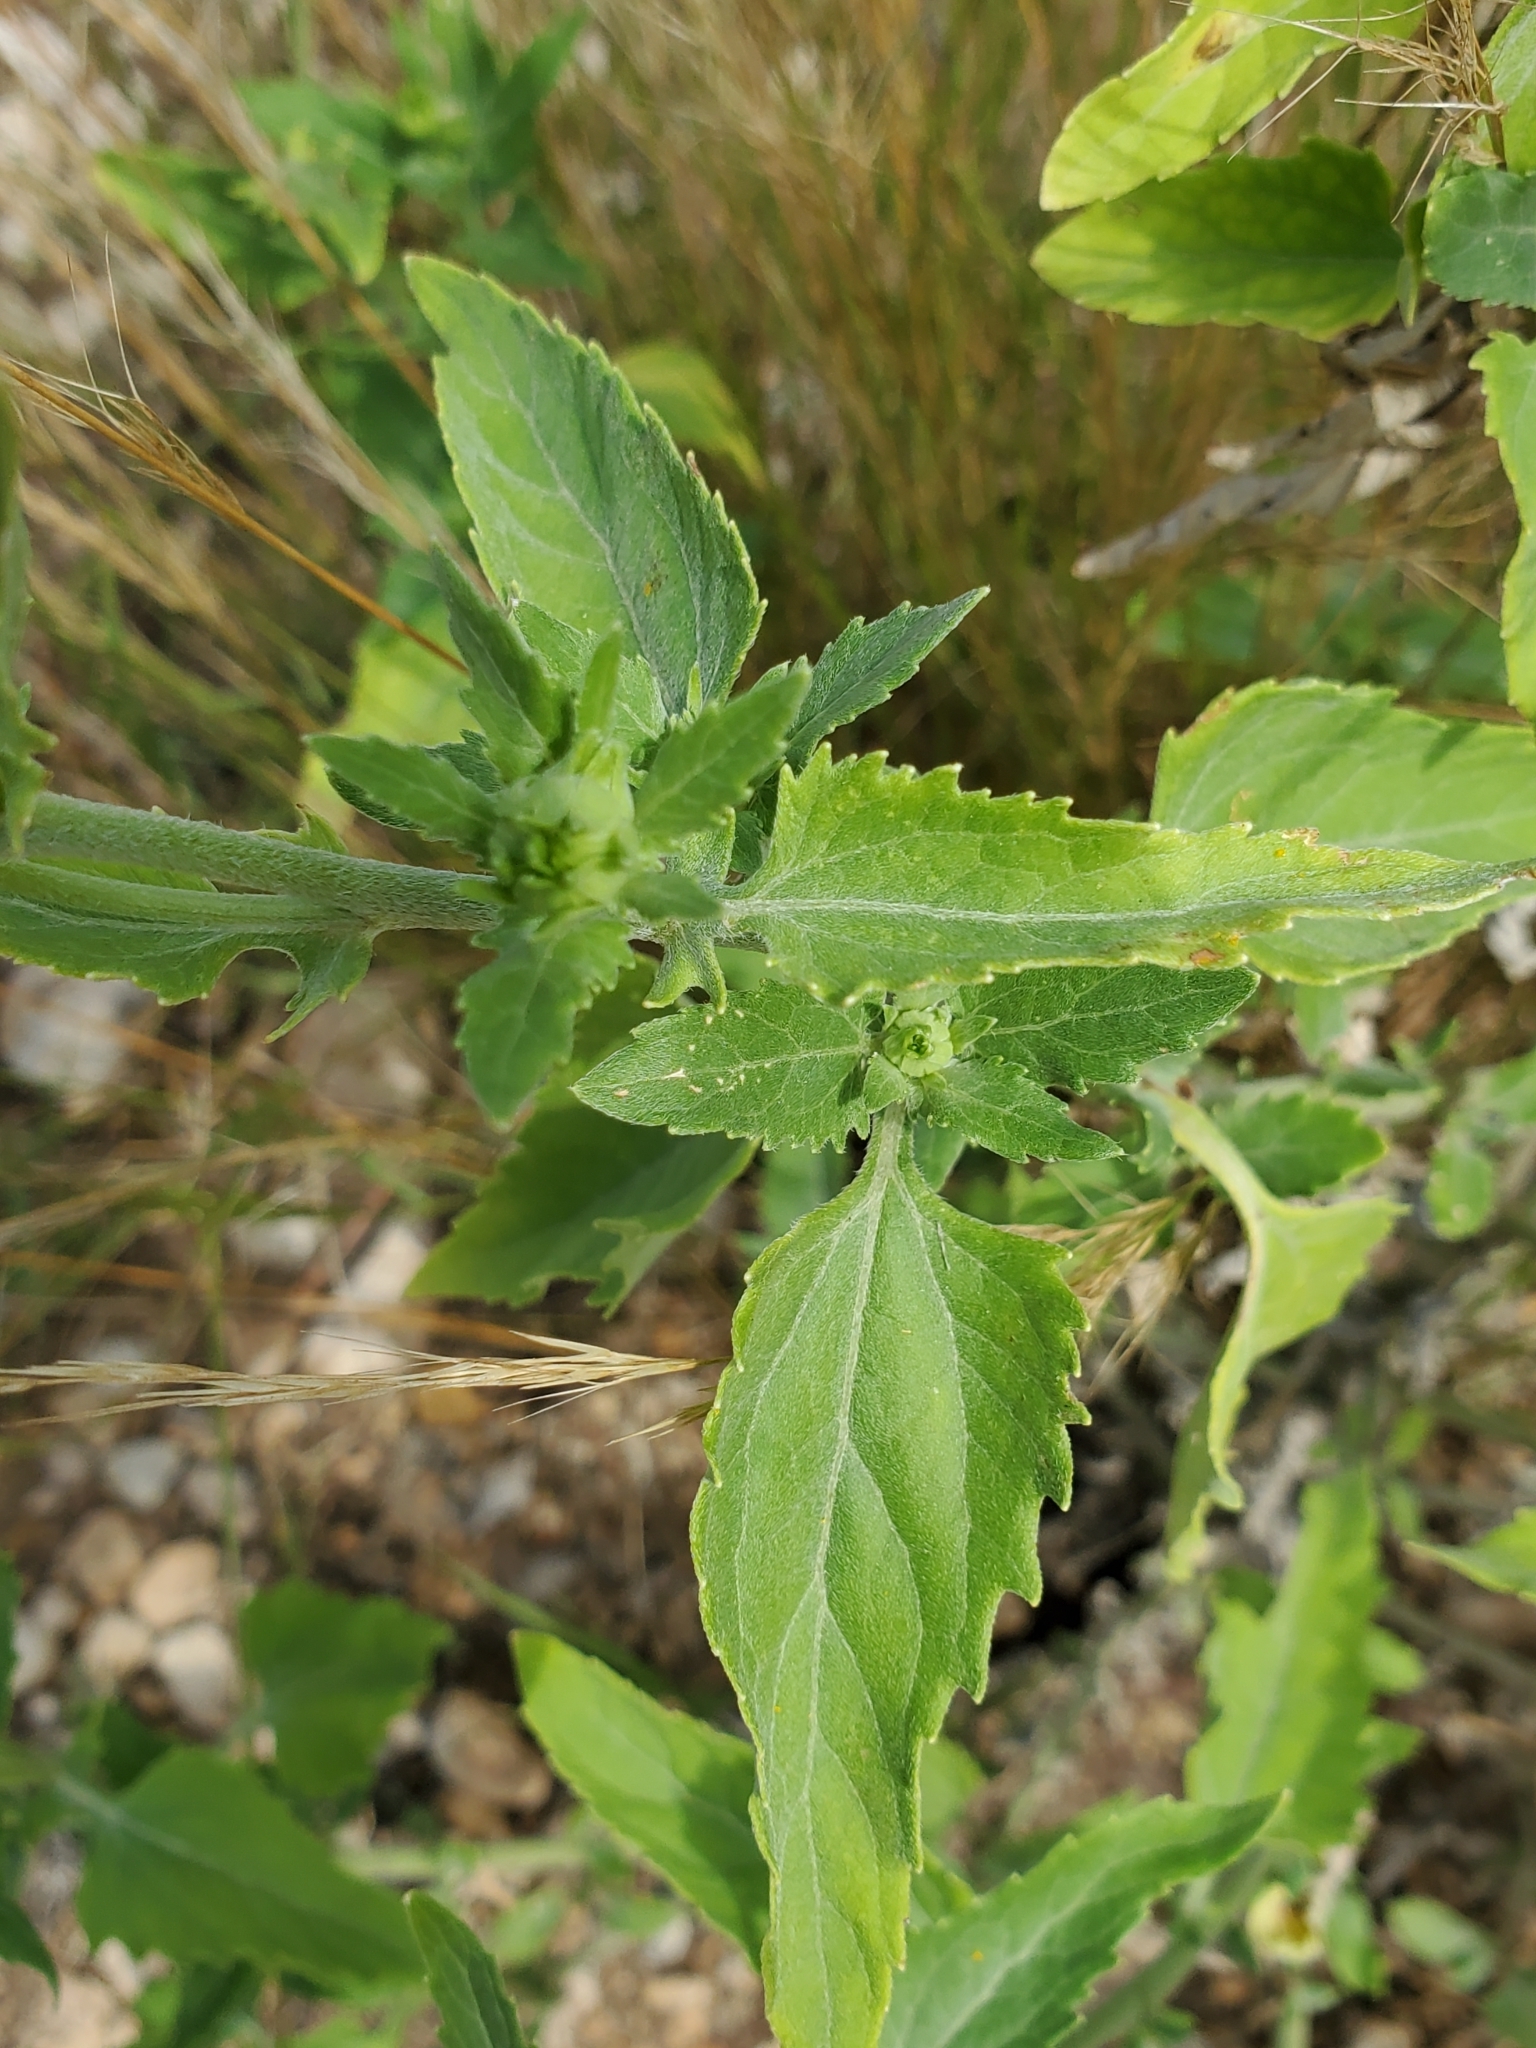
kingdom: Plantae
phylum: Tracheophyta
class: Magnoliopsida
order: Asterales
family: Asteraceae
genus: Verbesina
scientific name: Verbesina encelioides
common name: Golden crownbeard
